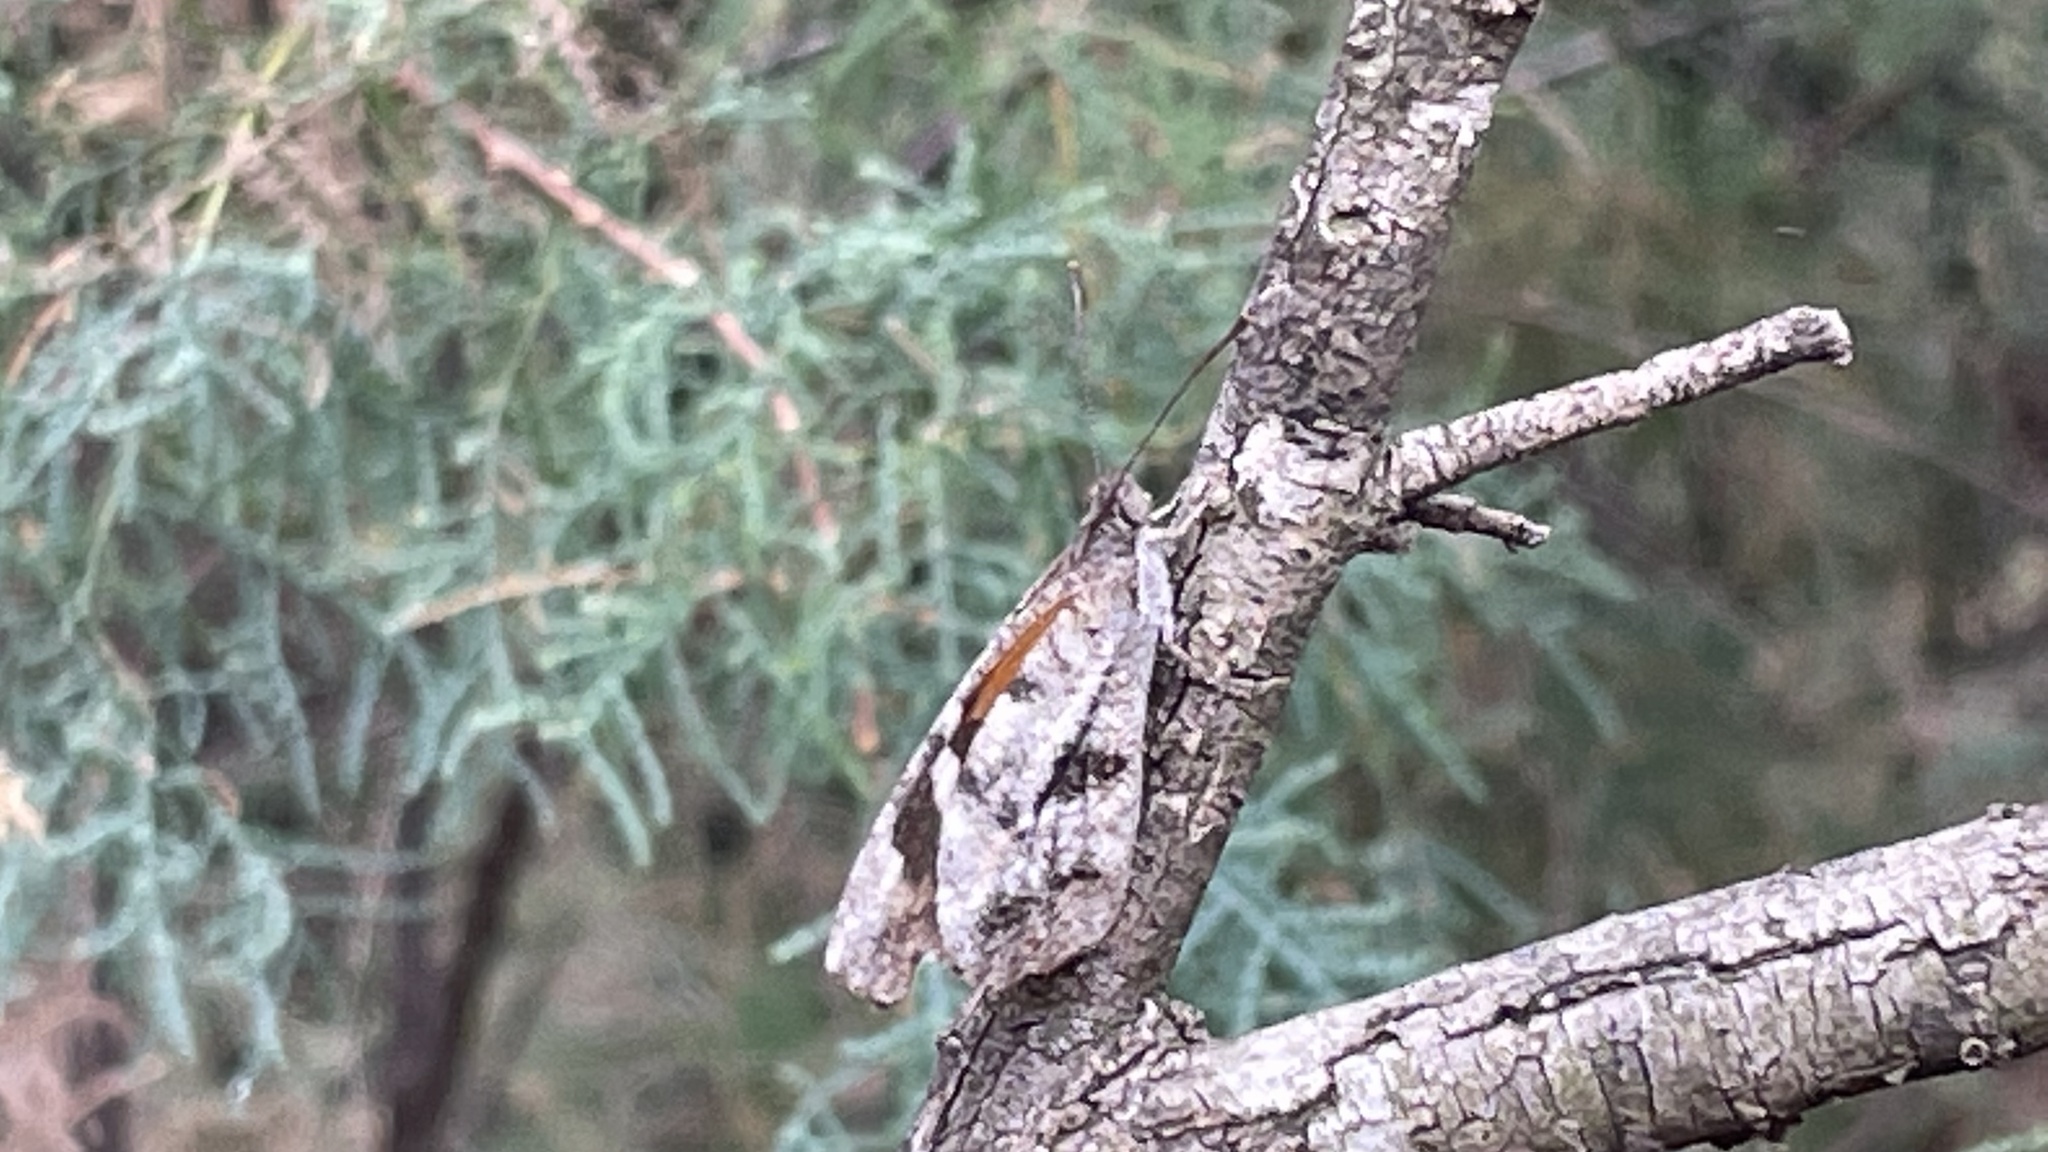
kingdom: Animalia
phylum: Arthropoda
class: Insecta
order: Lepidoptera
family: Nymphalidae
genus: Libytheana
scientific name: Libytheana carinenta
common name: American snout
